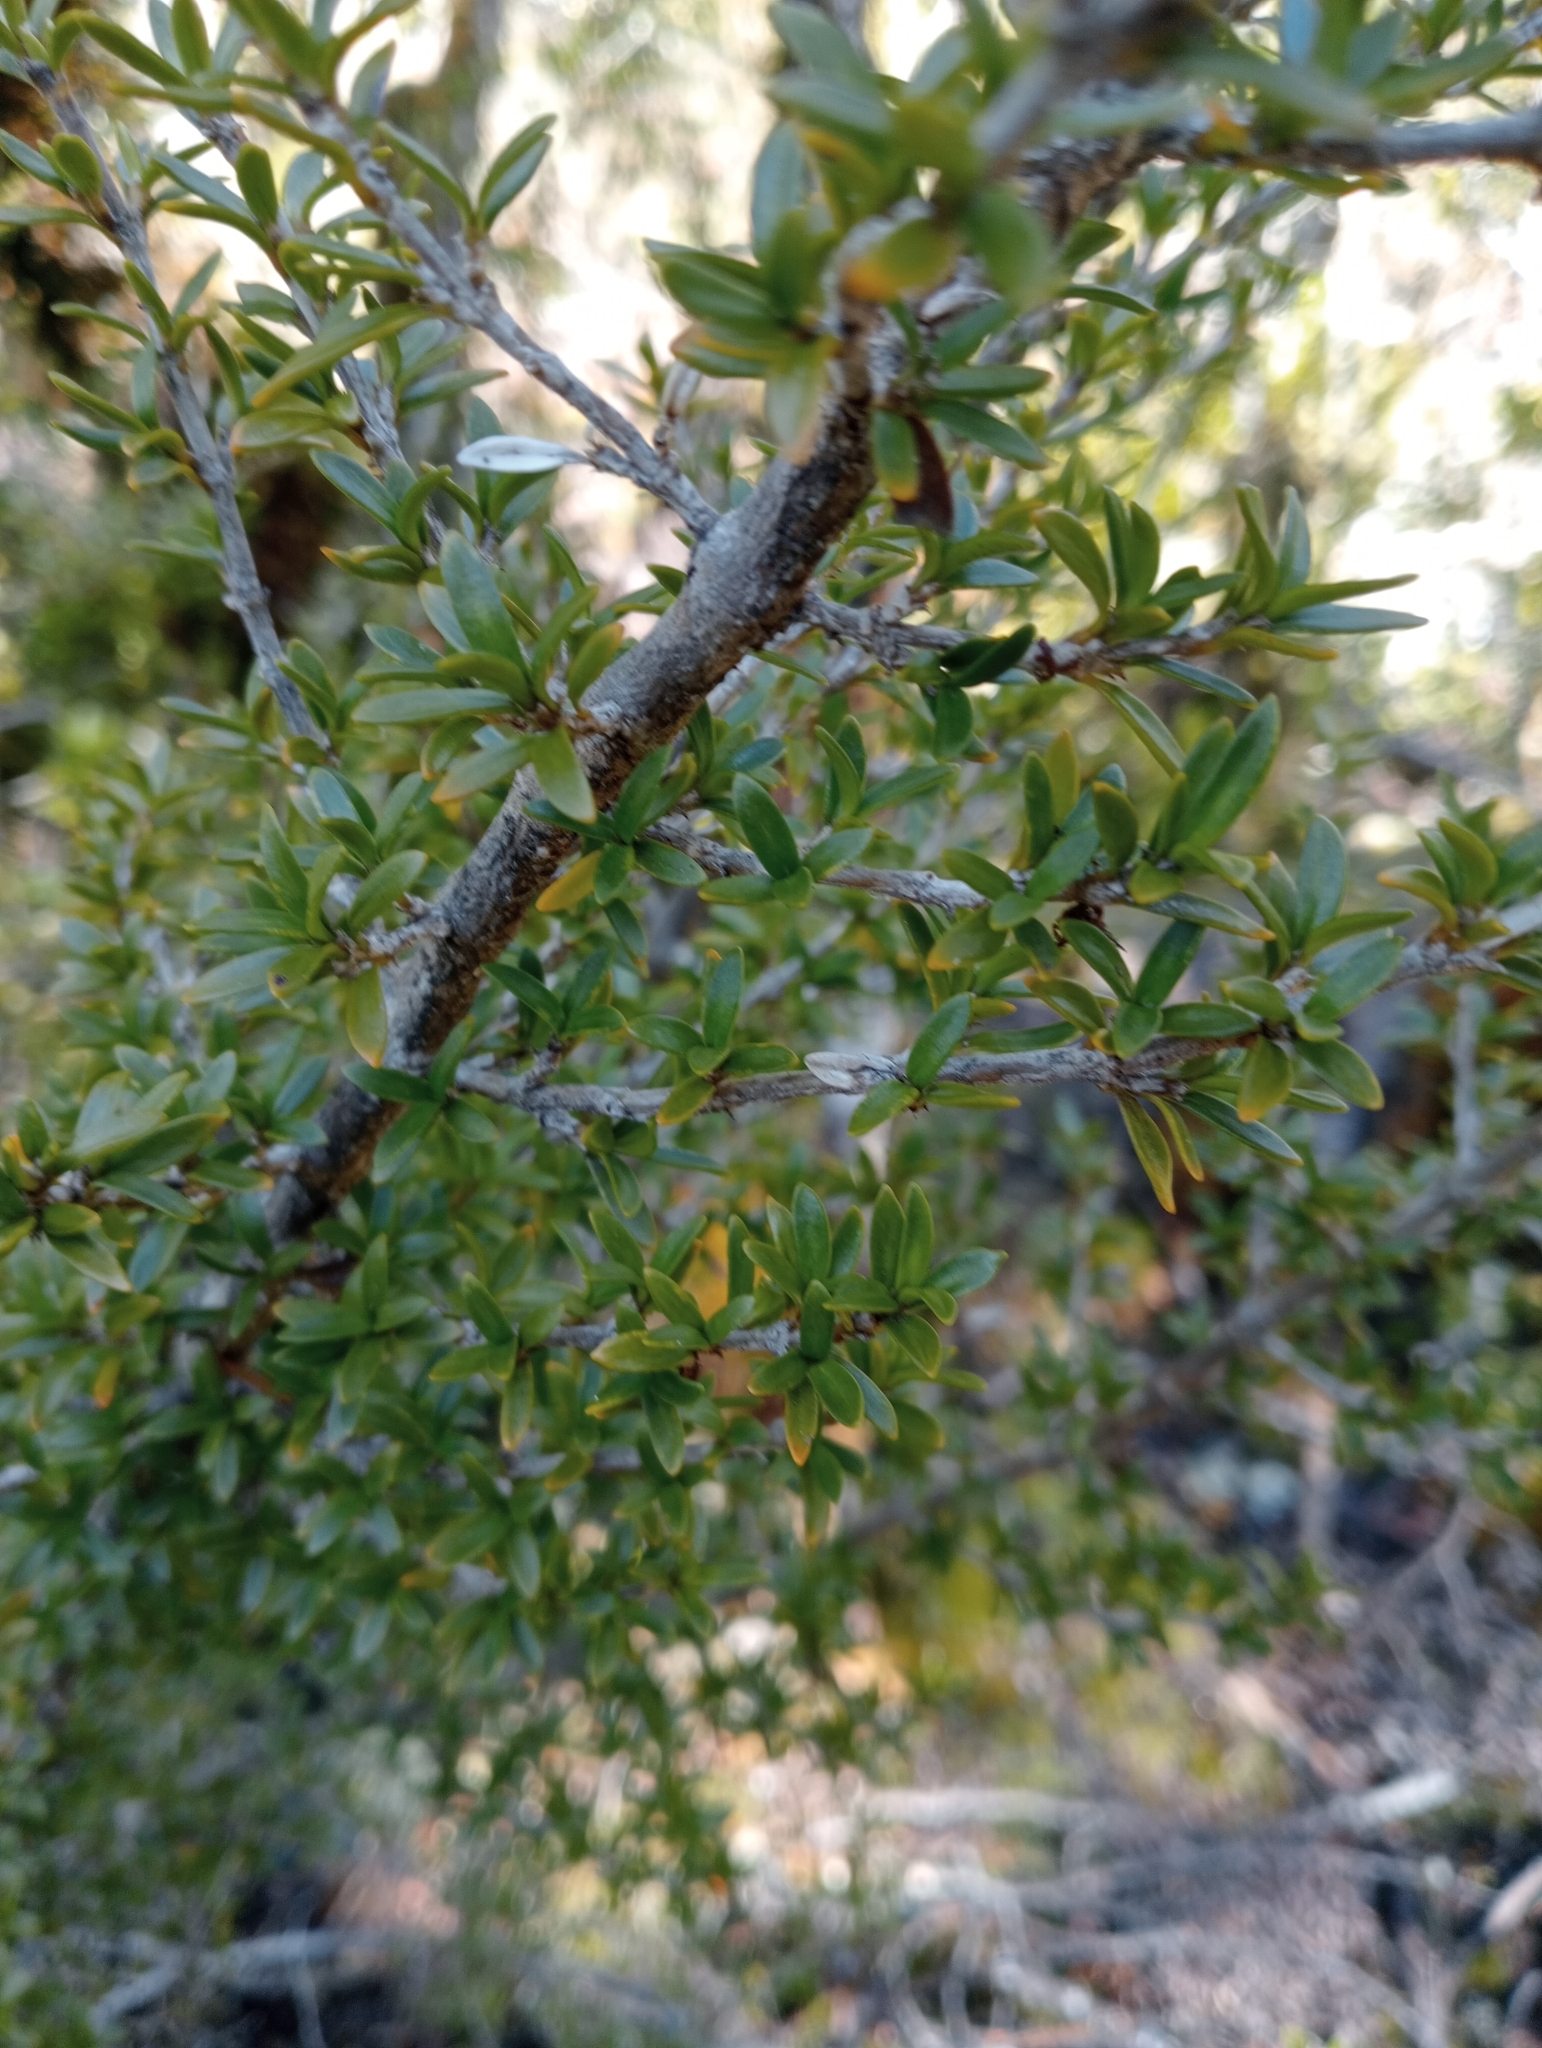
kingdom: Plantae
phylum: Tracheophyta
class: Magnoliopsida
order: Gentianales
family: Rubiaceae
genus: Coprosma
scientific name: Coprosma pseudocuneata
